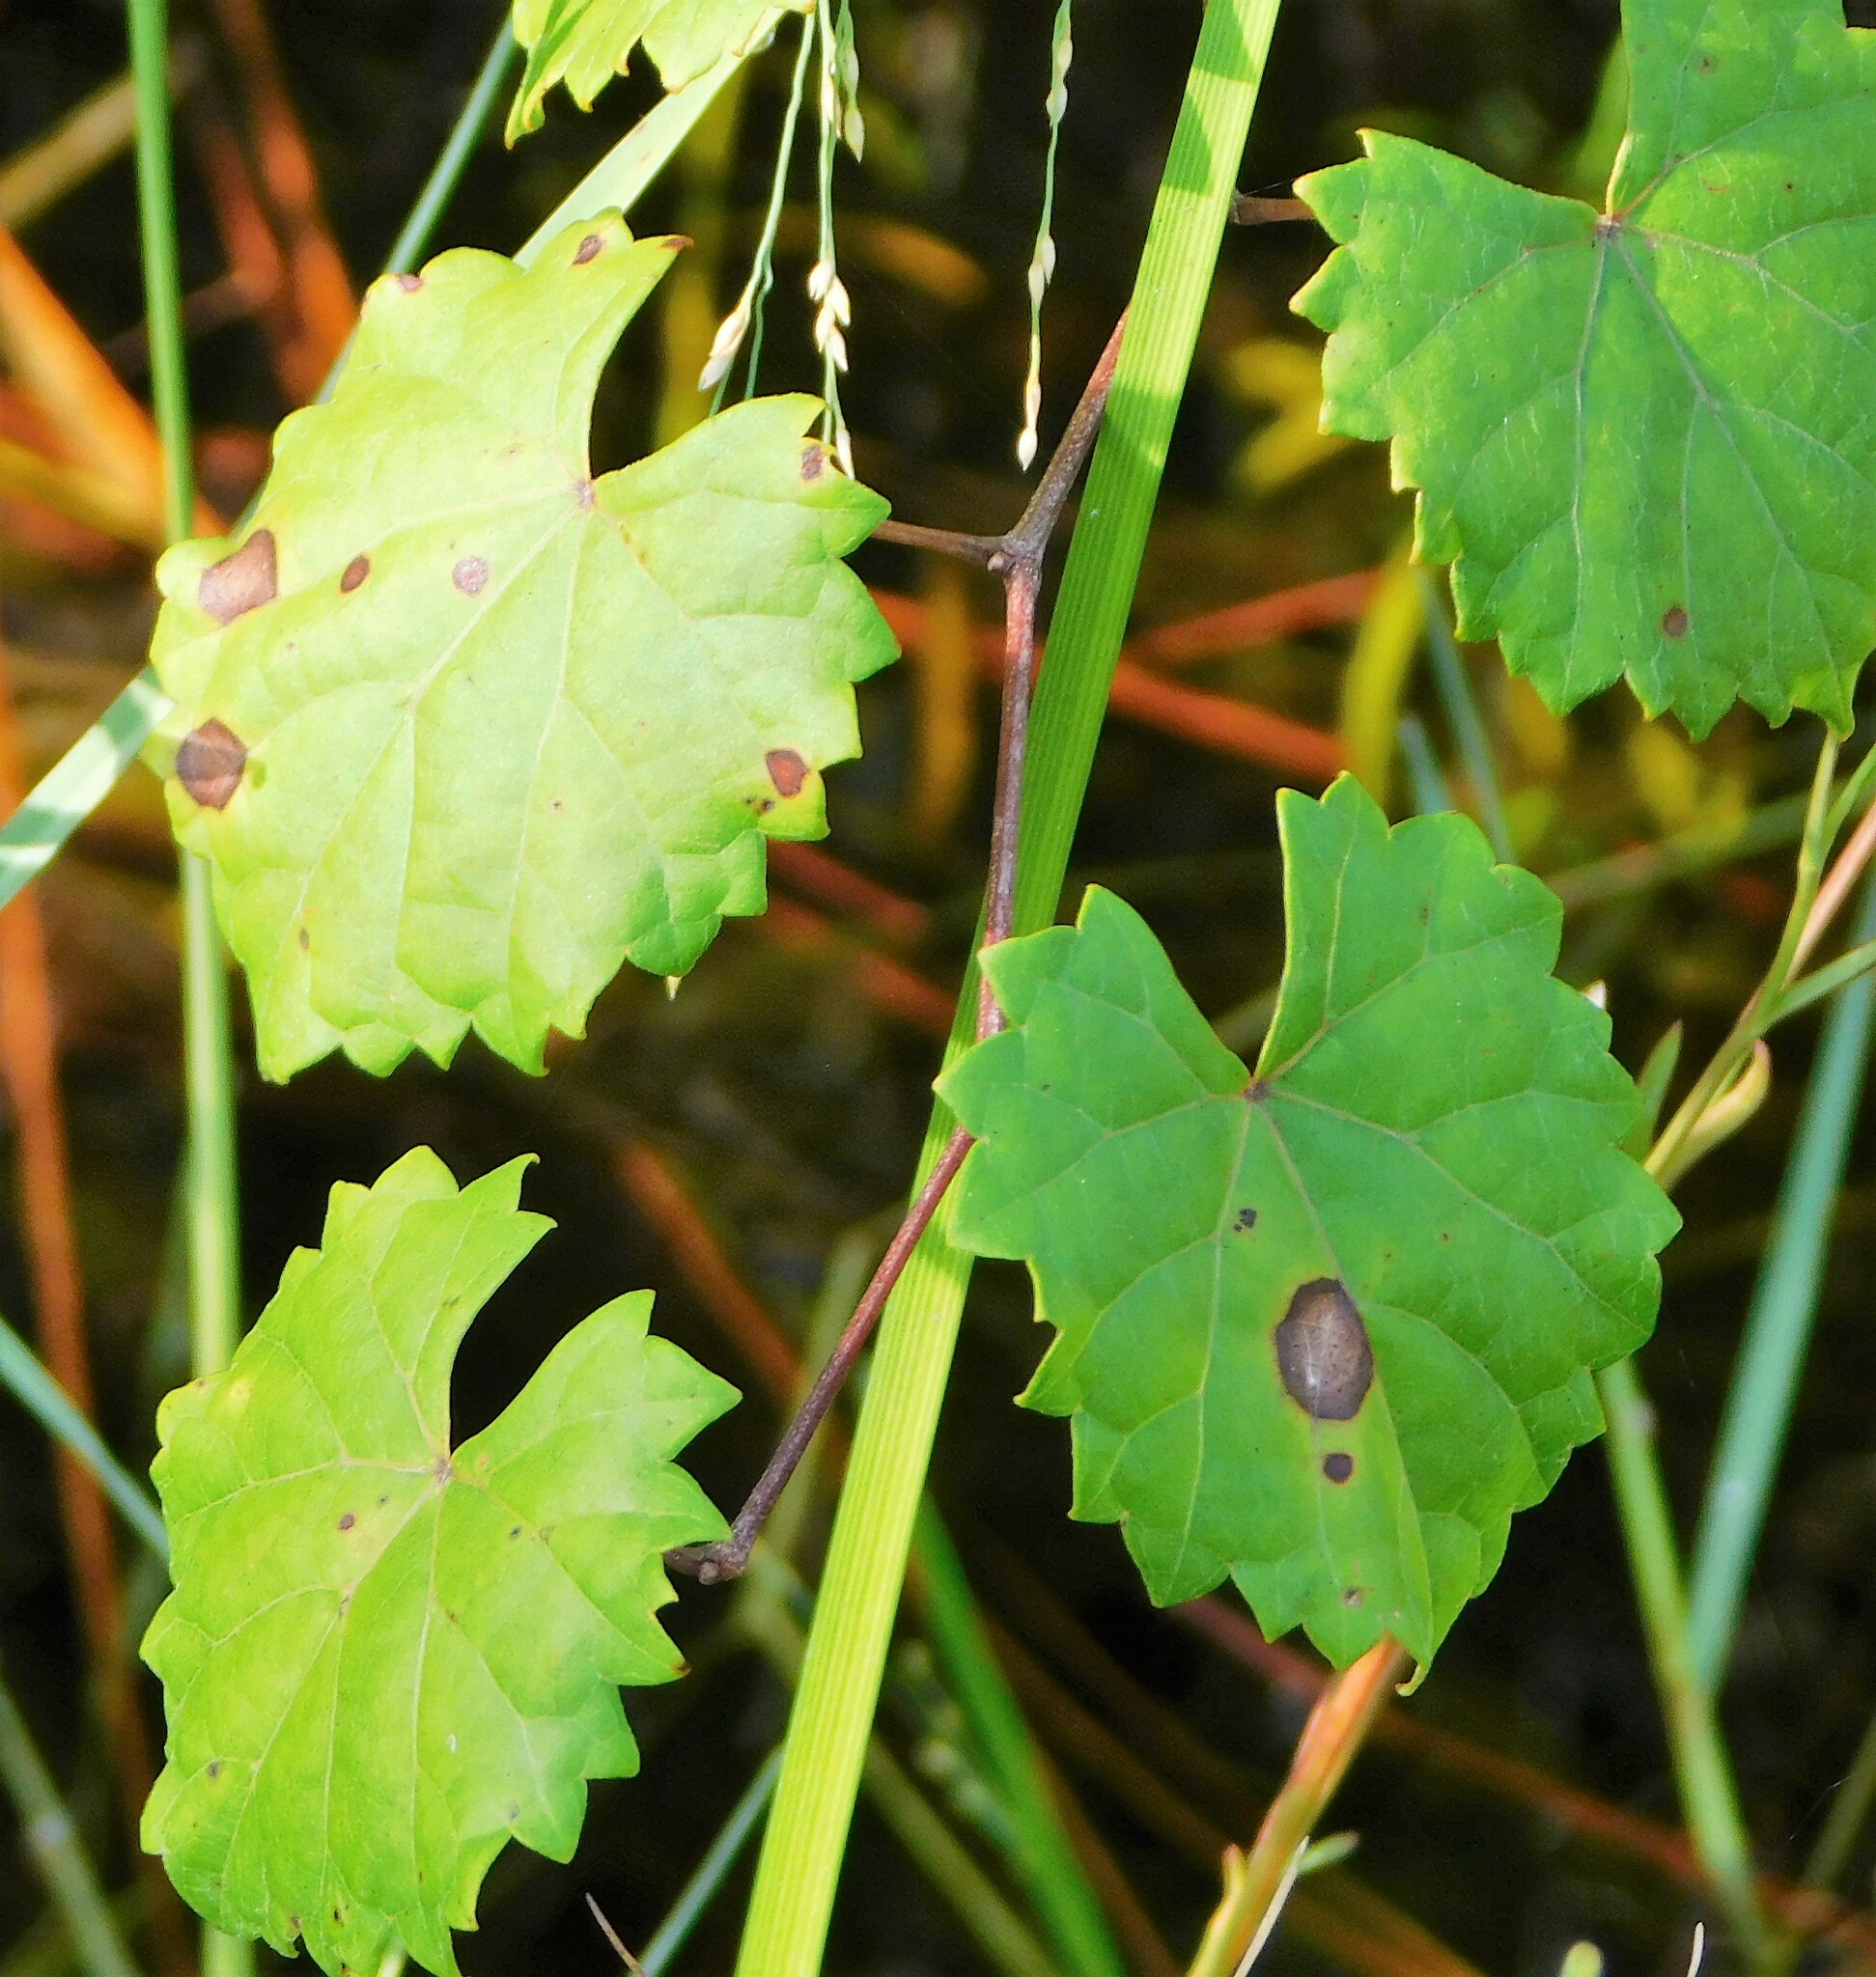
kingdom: Plantae
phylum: Tracheophyta
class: Magnoliopsida
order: Vitales
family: Vitaceae
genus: Vitis
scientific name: Vitis rotundifolia
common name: Muscadine grape
